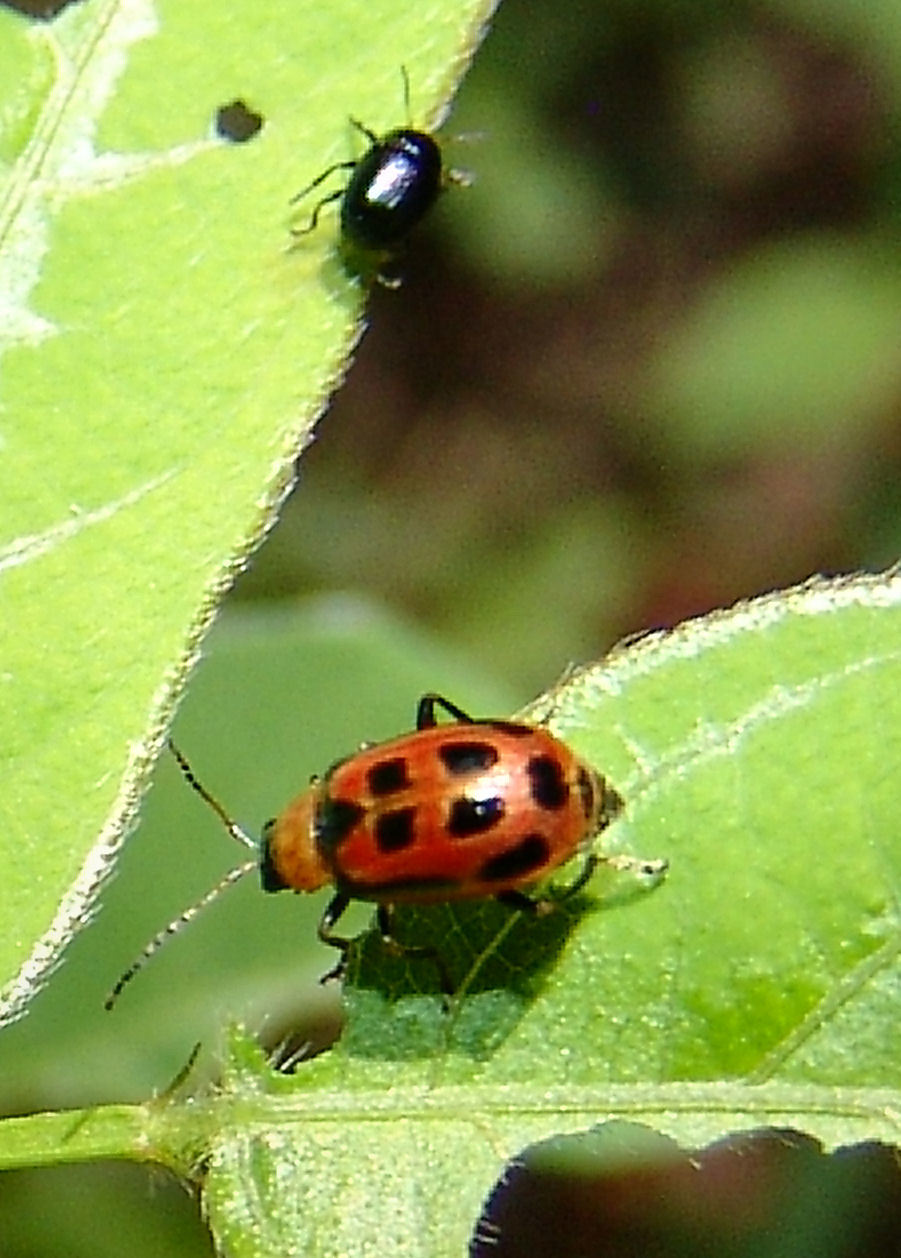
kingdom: Animalia
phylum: Arthropoda
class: Insecta
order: Coleoptera
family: Chrysomelidae
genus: Cerotoma
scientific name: Cerotoma trifurcata
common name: Bean leaf beetle
